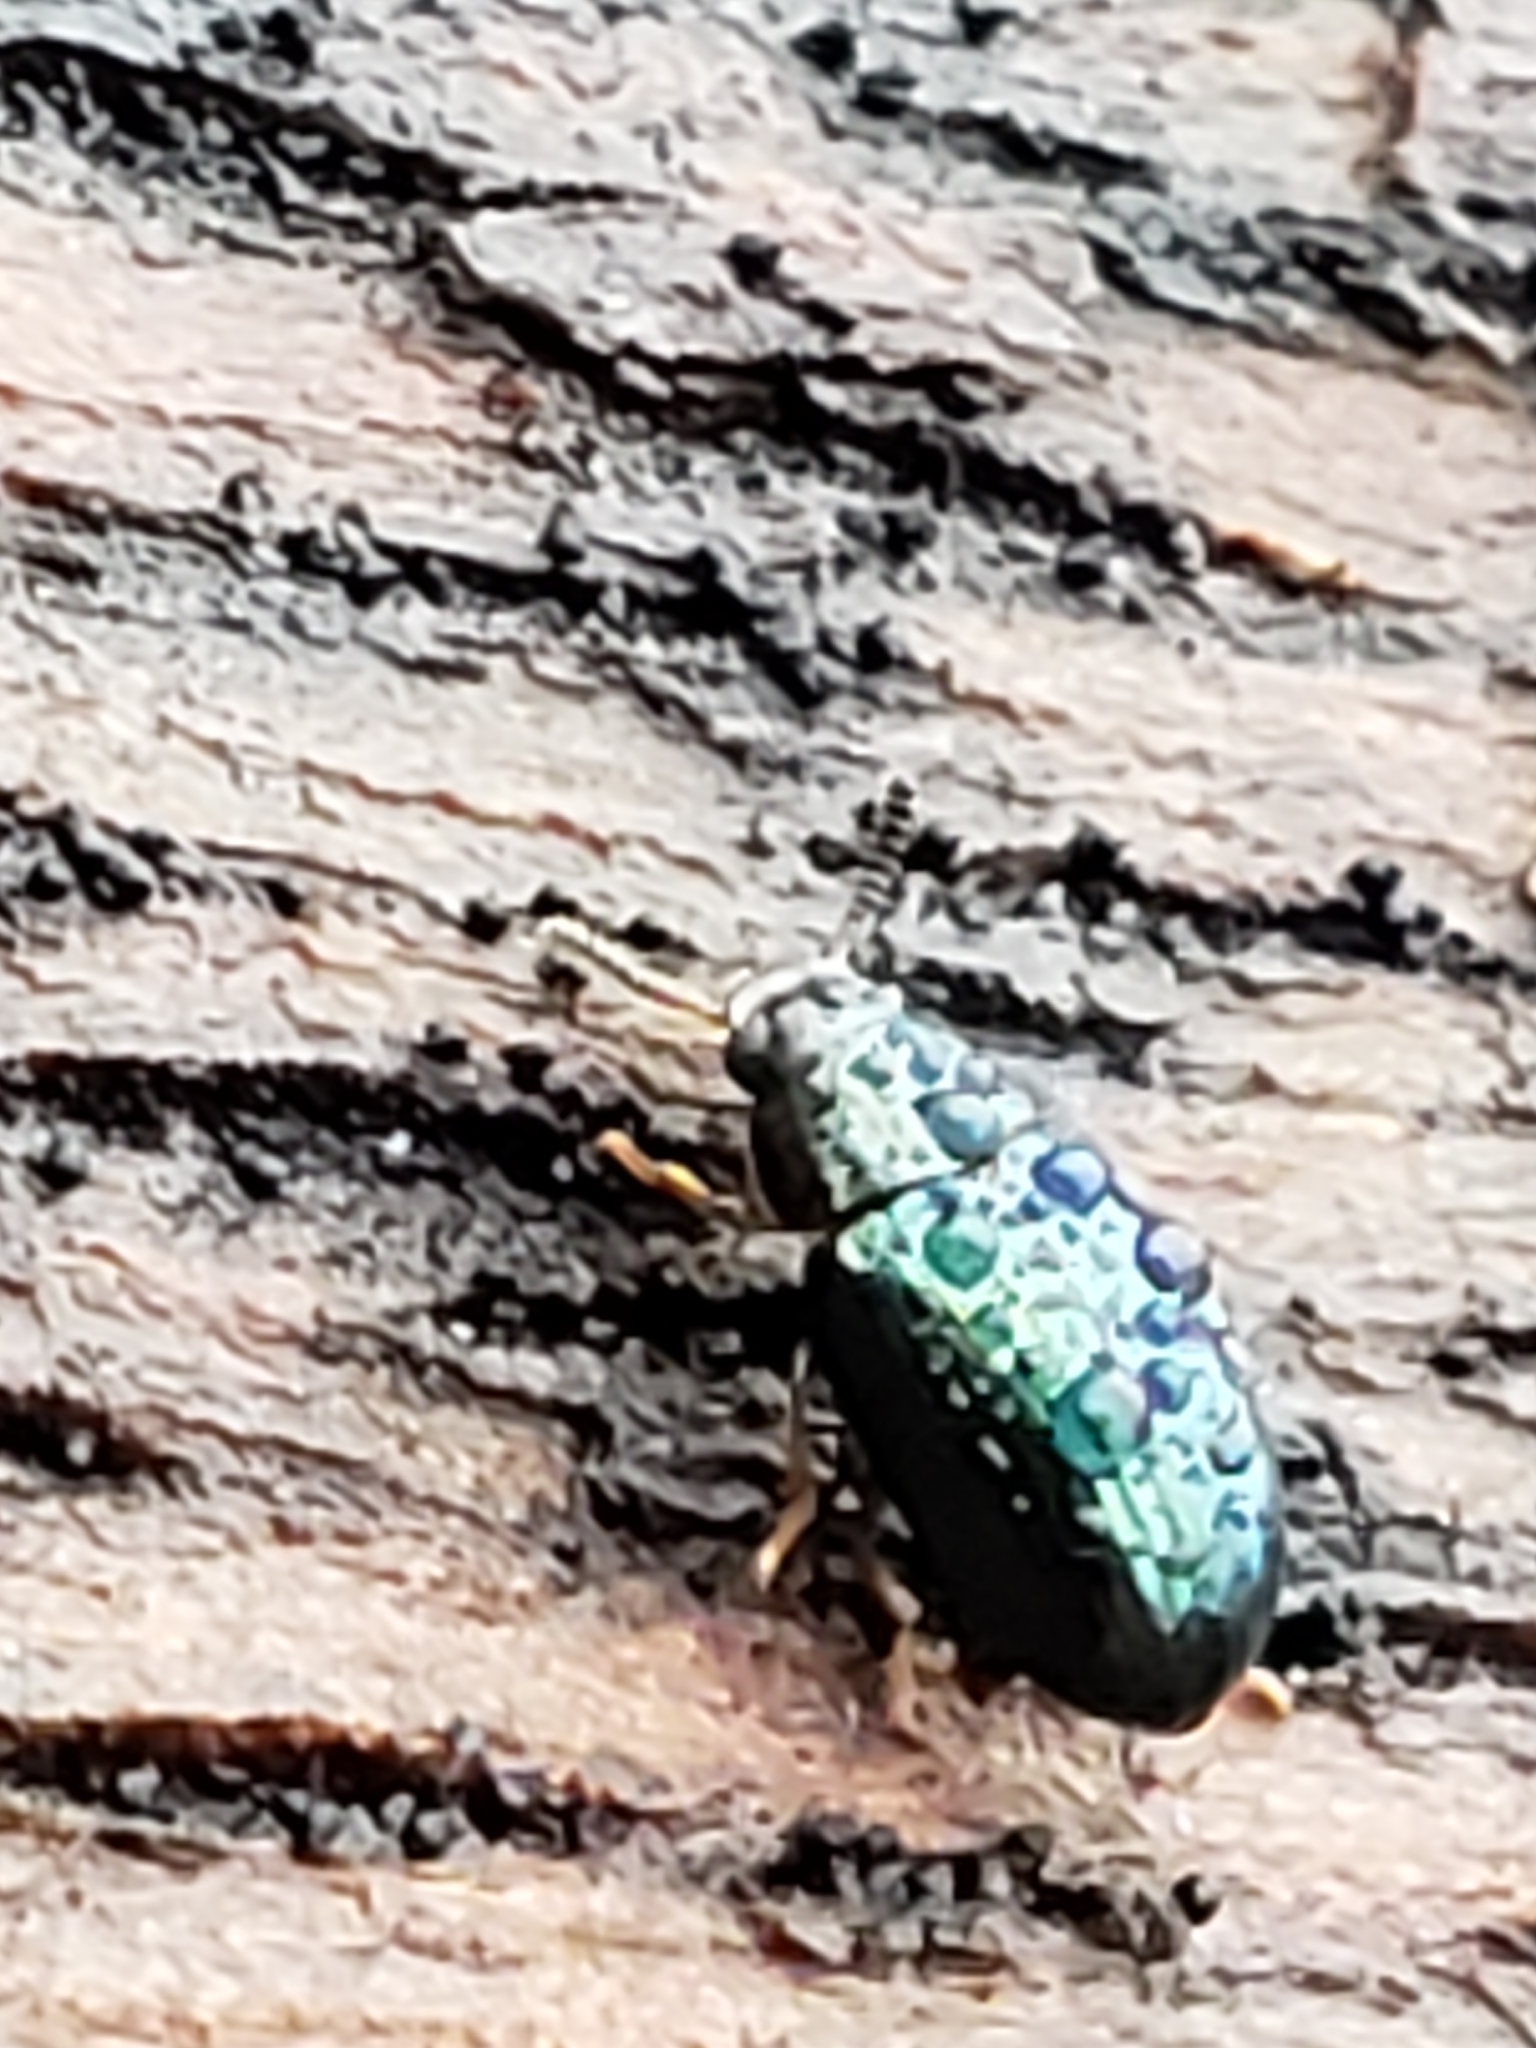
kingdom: Animalia
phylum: Arthropoda
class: Insecta
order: Coleoptera
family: Tenebrionidae
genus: Neomida
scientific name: Neomida bicornis
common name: Two-horned darkling beetle
